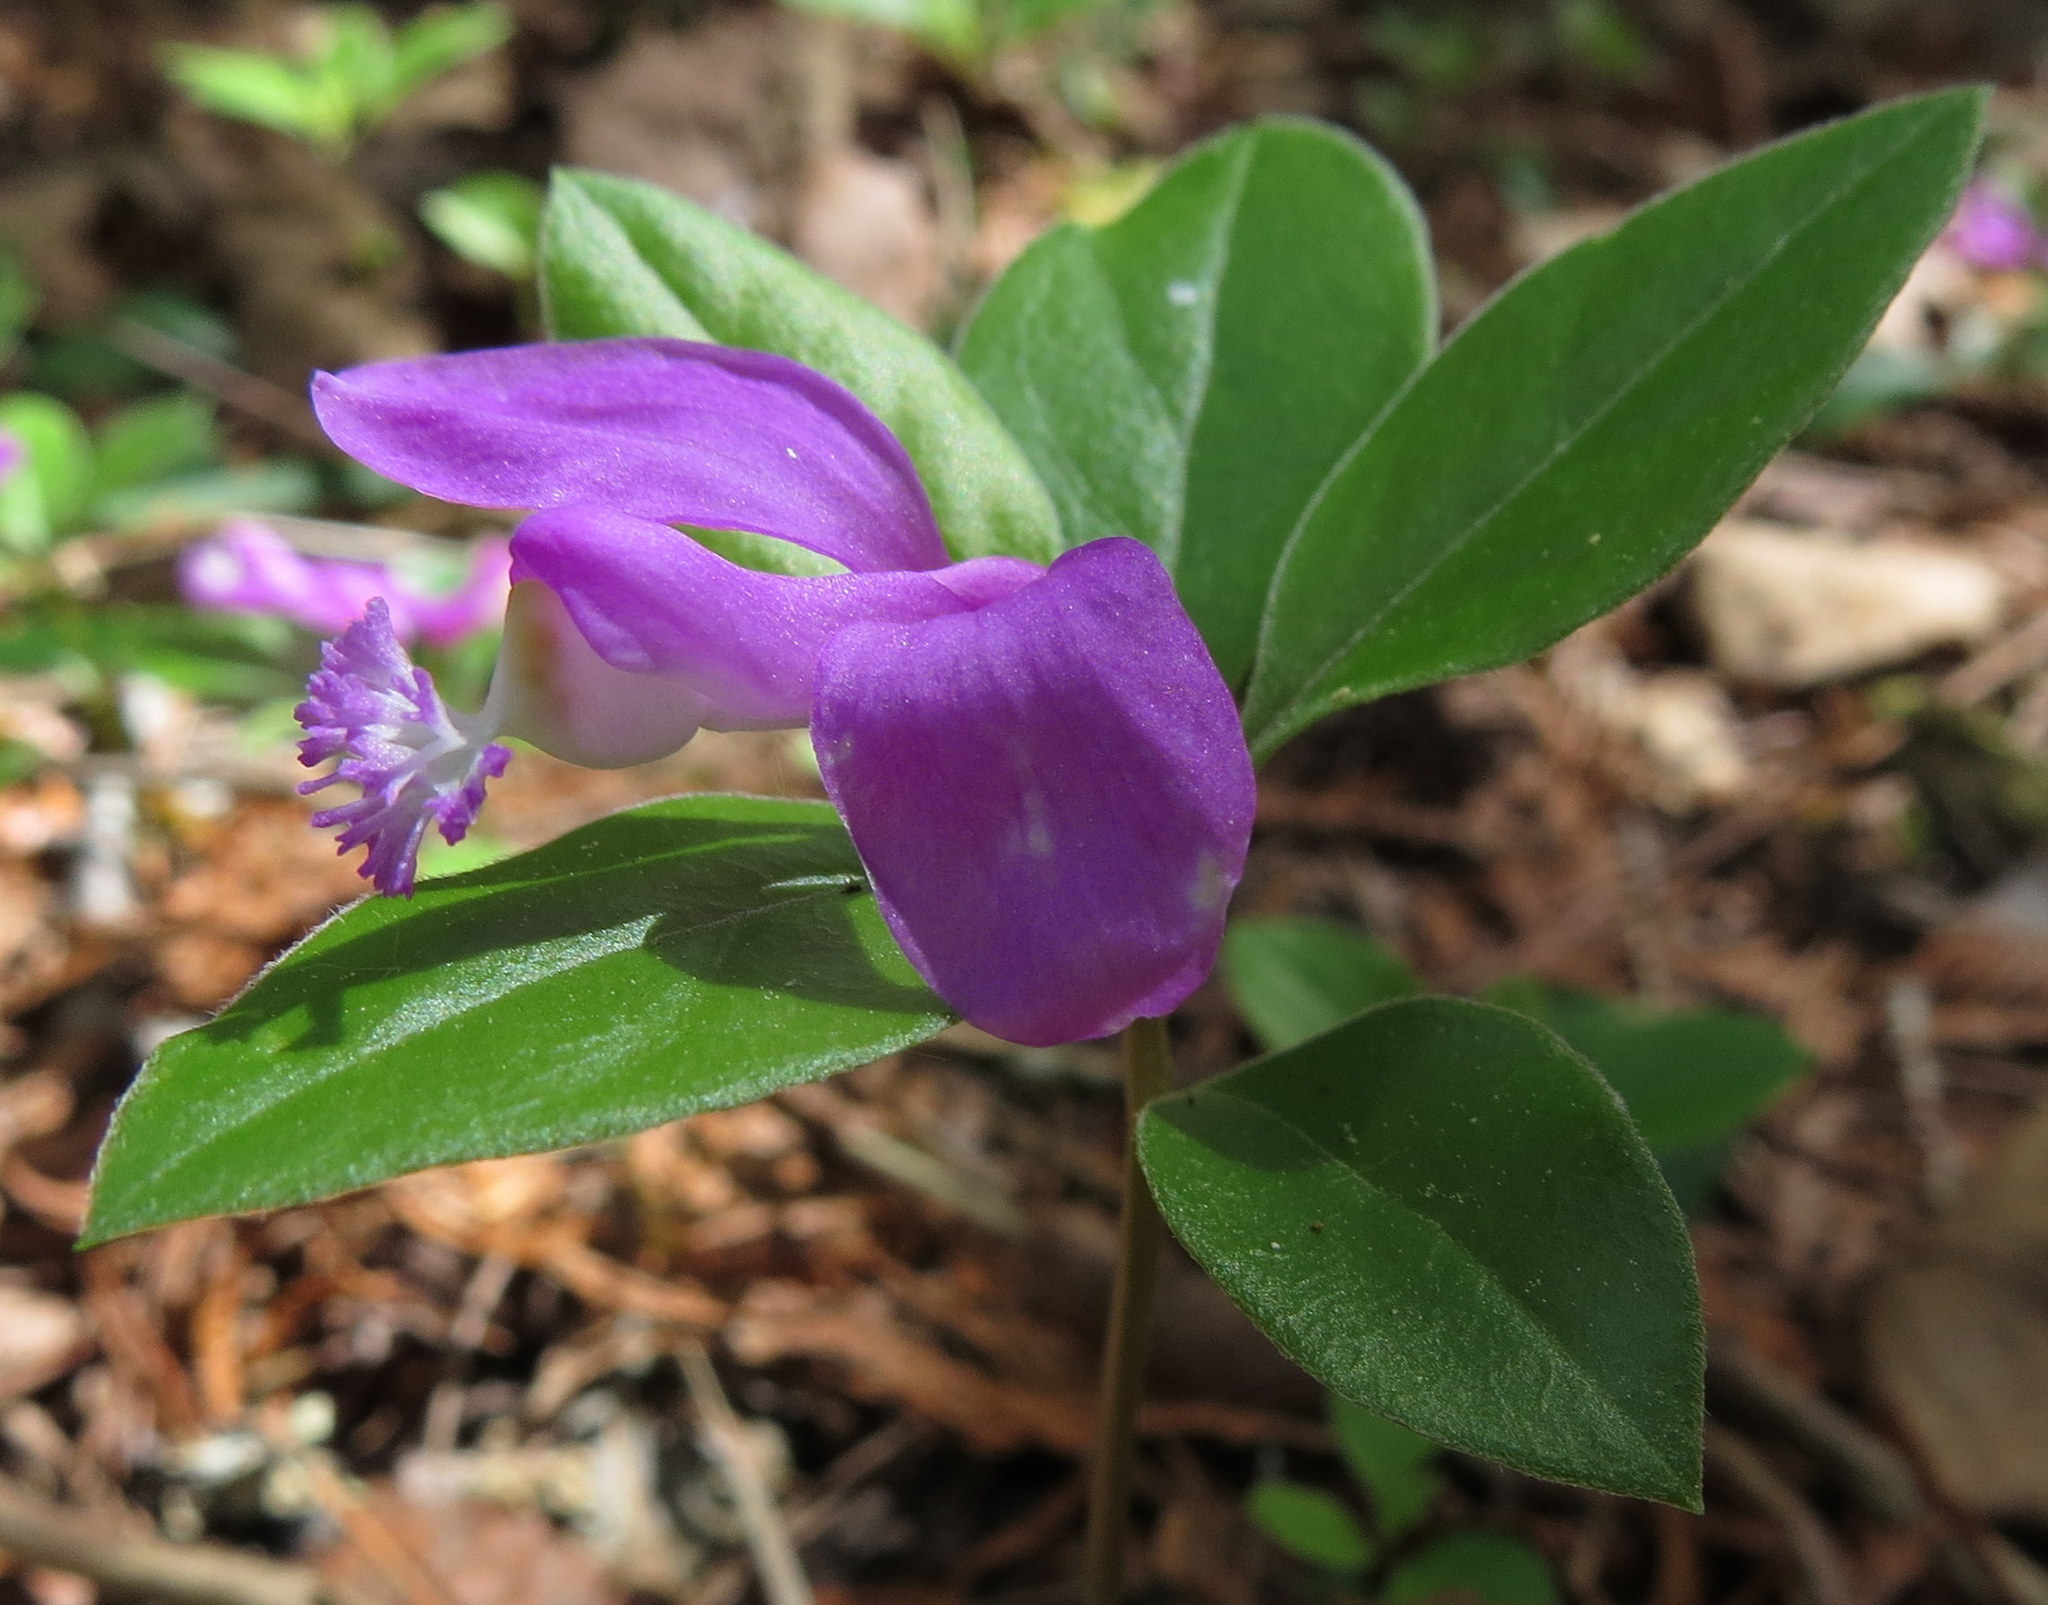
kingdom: Plantae
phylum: Tracheophyta
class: Magnoliopsida
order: Fabales
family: Polygalaceae
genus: Polygaloides
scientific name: Polygaloides paucifolia
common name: Bird-on-the-wing
